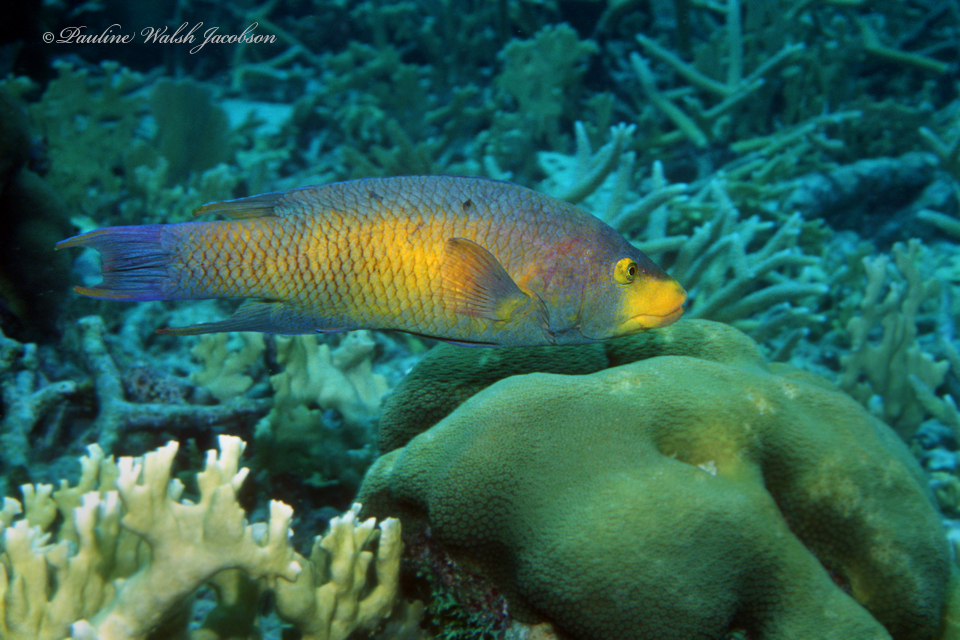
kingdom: Animalia
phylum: Chordata
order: Perciformes
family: Labridae
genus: Bodianus
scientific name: Bodianus rufus
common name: Spanish hogfish
